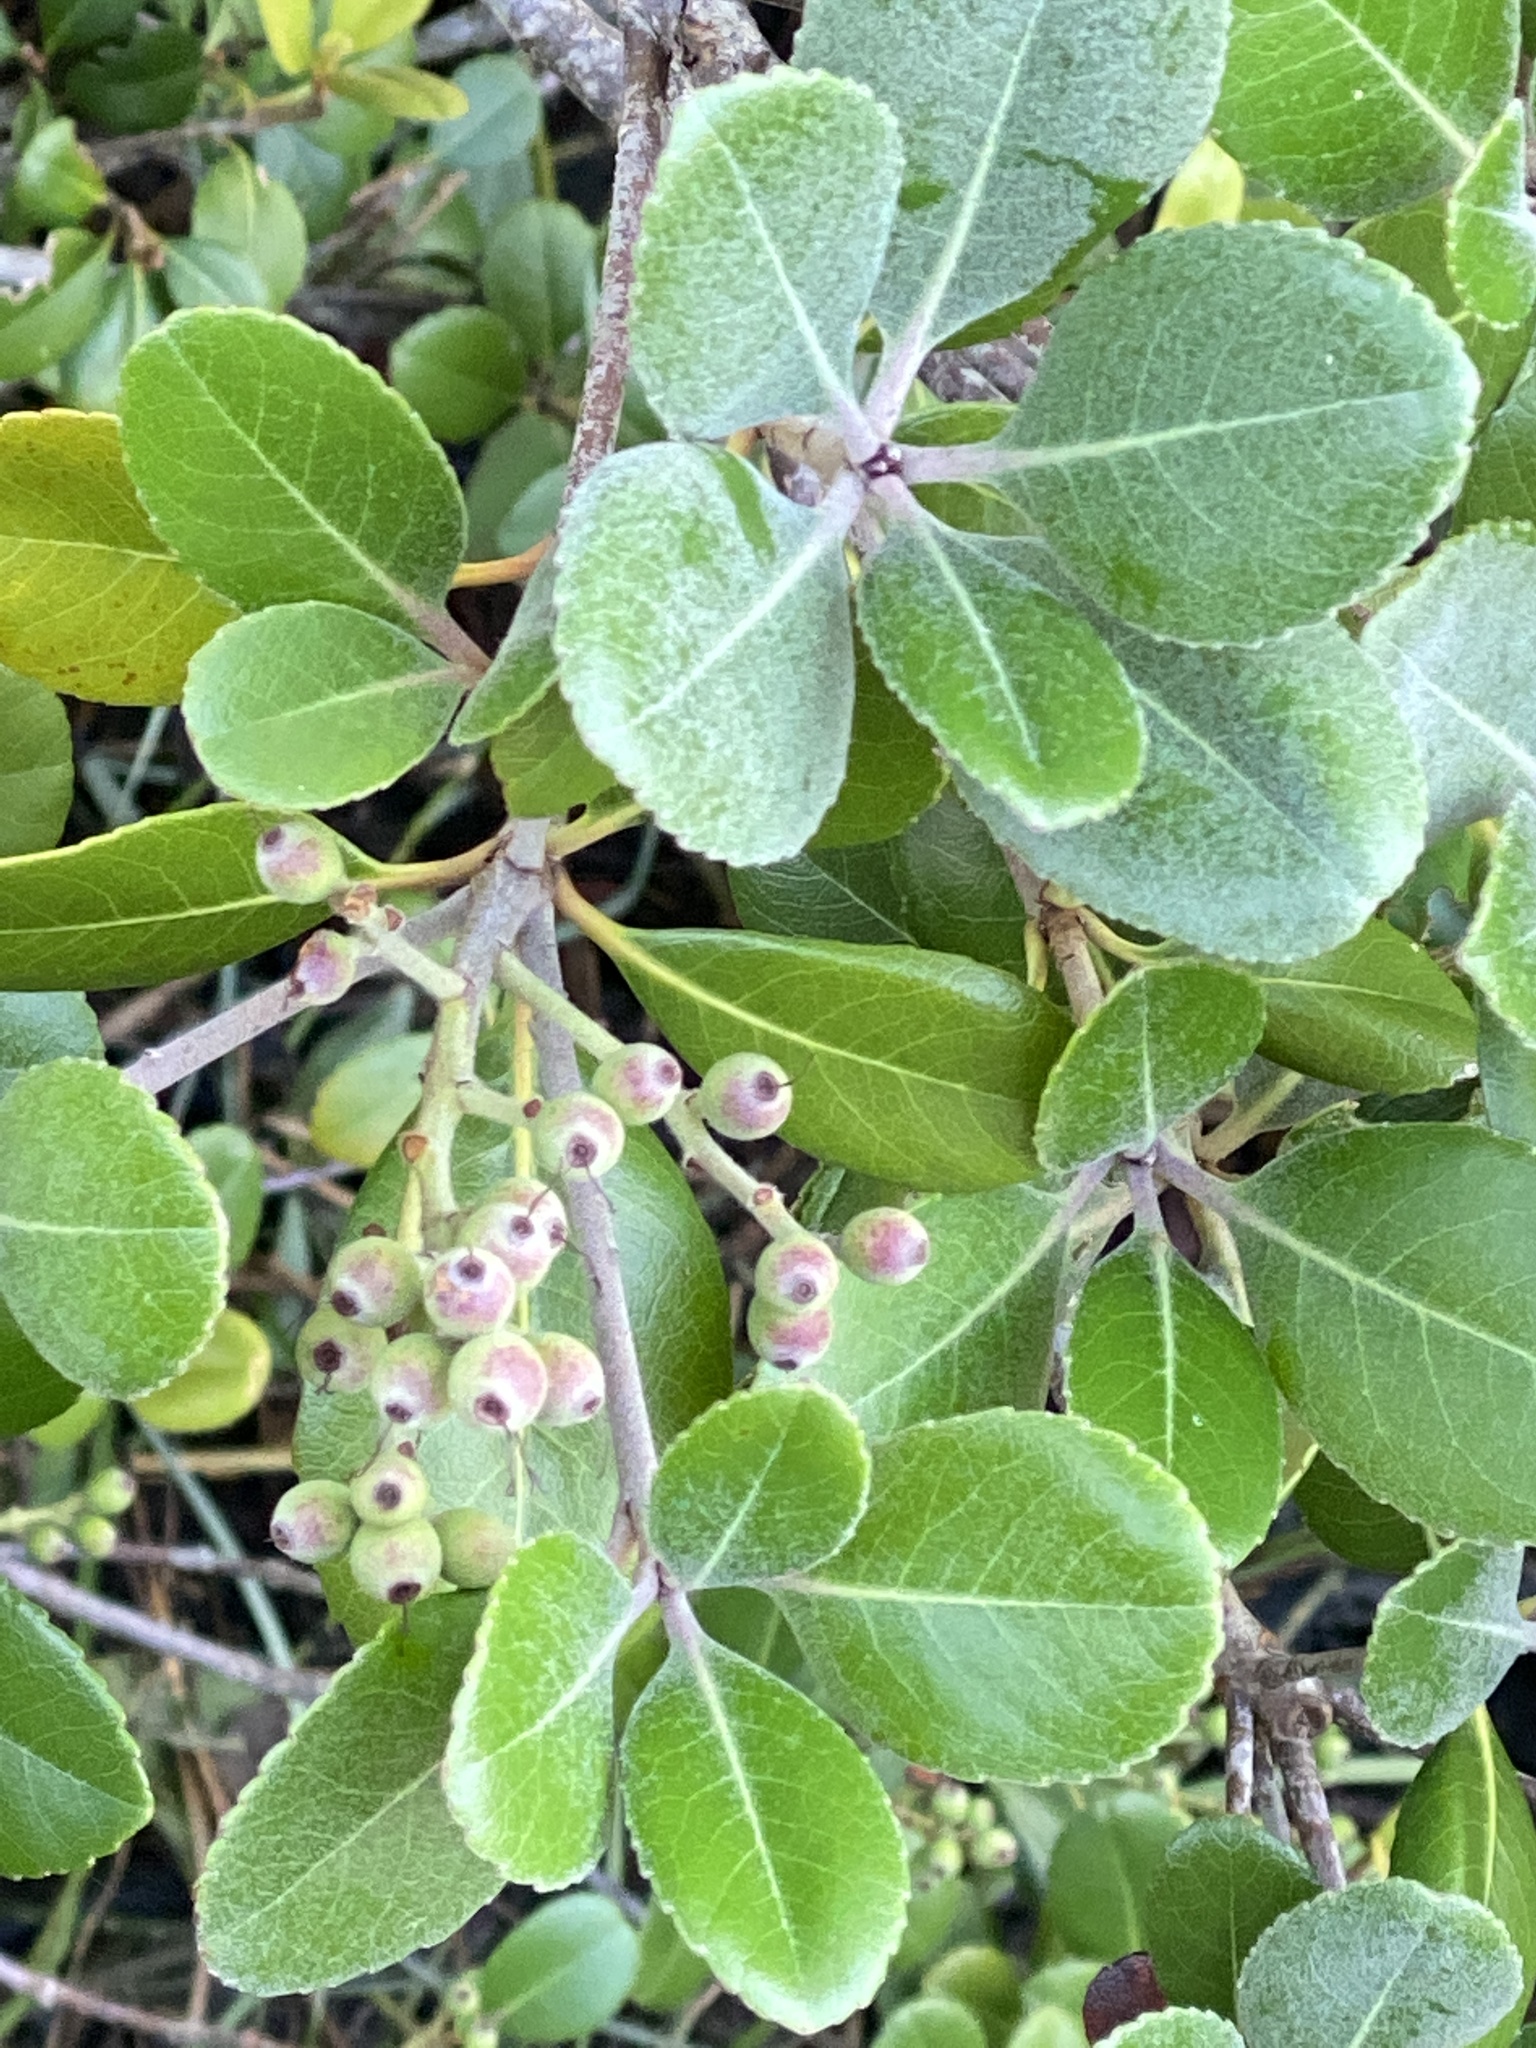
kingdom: Plantae
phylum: Tracheophyta
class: Magnoliopsida
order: Rosales
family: Rosaceae
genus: Rhaphiolepis
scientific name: Rhaphiolepis indica
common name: India-hawthorn
